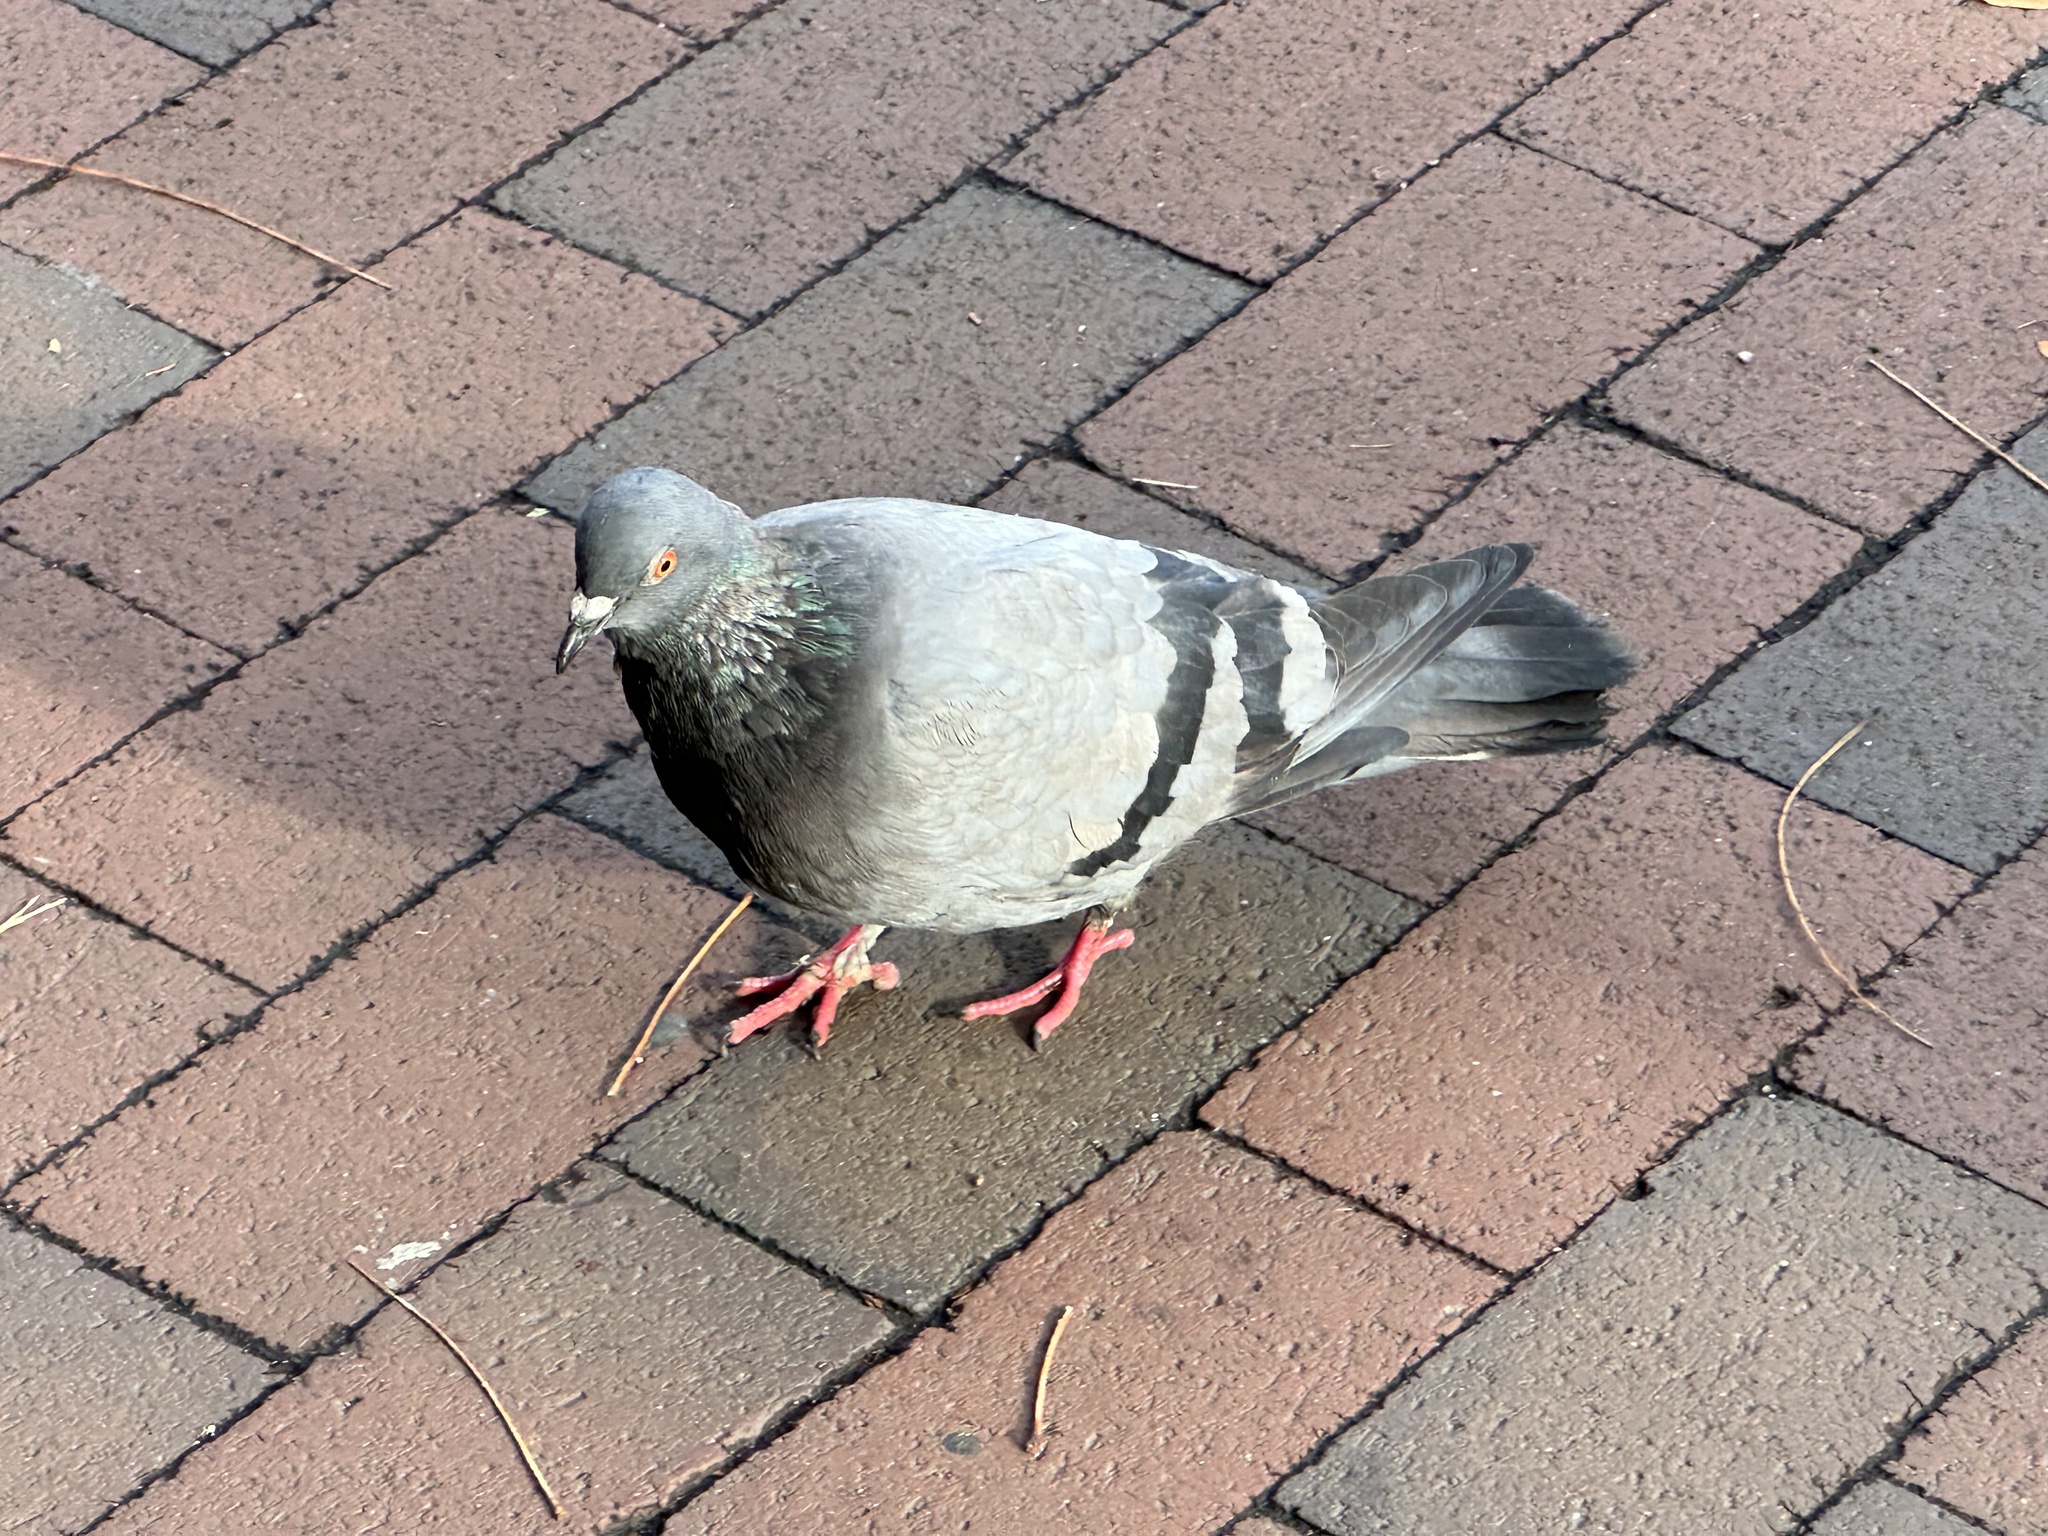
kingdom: Animalia
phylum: Chordata
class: Aves
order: Columbiformes
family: Columbidae
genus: Columba
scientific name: Columba livia
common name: Rock pigeon
